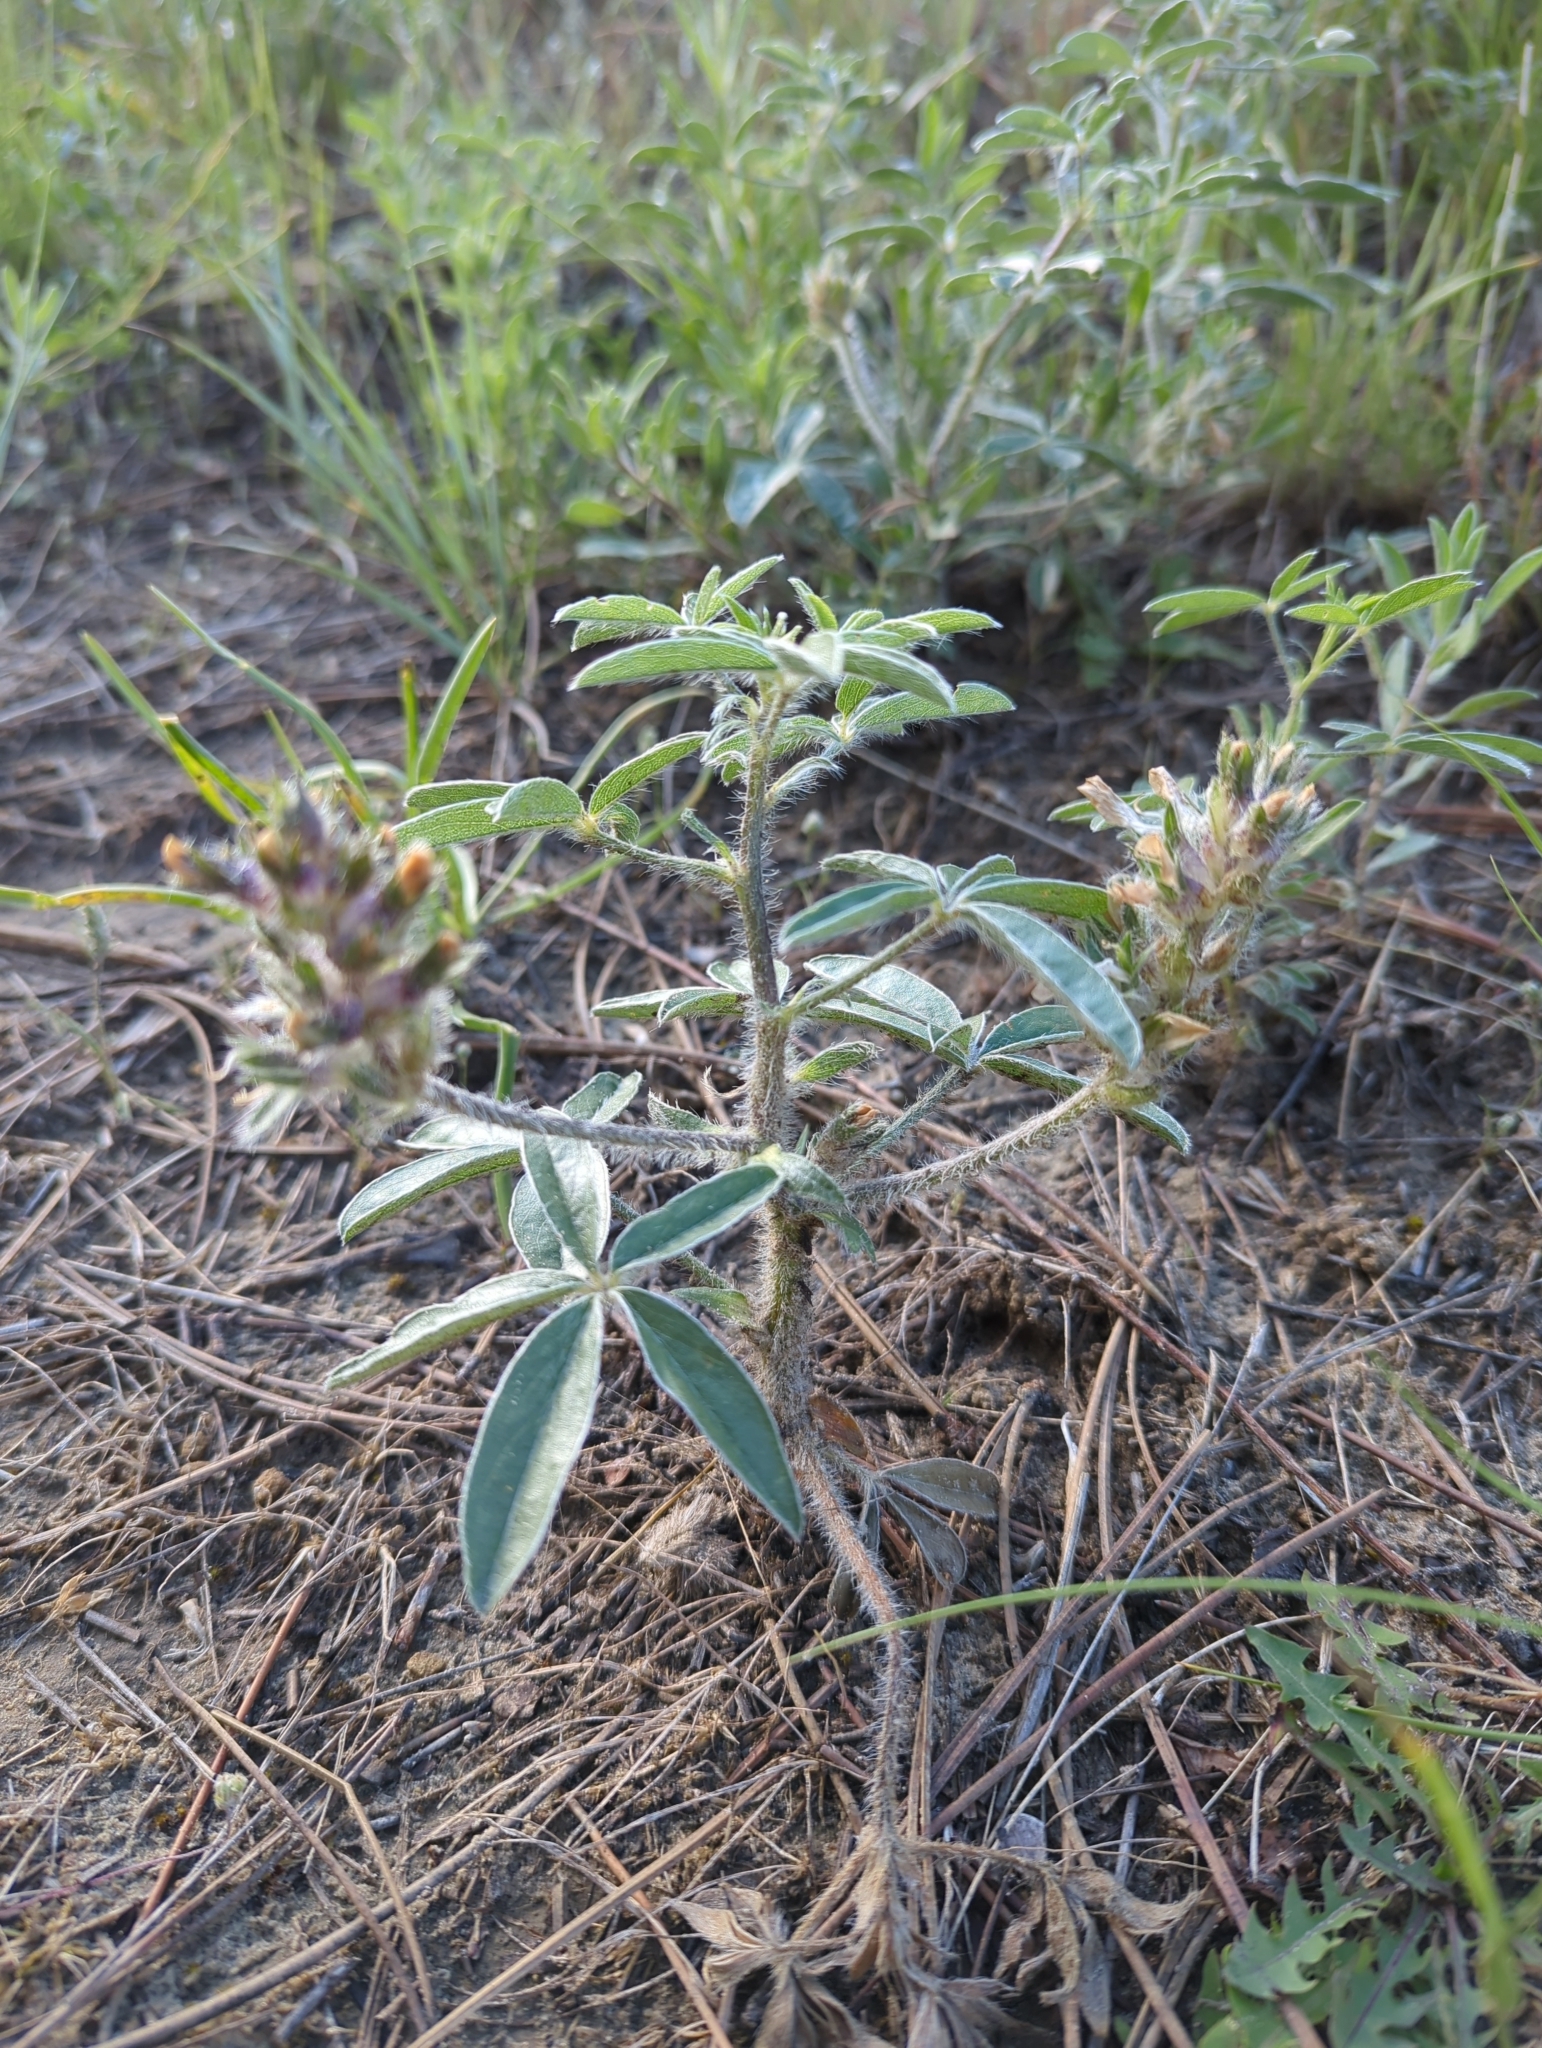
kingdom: Plantae
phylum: Tracheophyta
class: Magnoliopsida
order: Fabales
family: Fabaceae
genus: Pediomelum
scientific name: Pediomelum esculentum
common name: Indian-turnip
